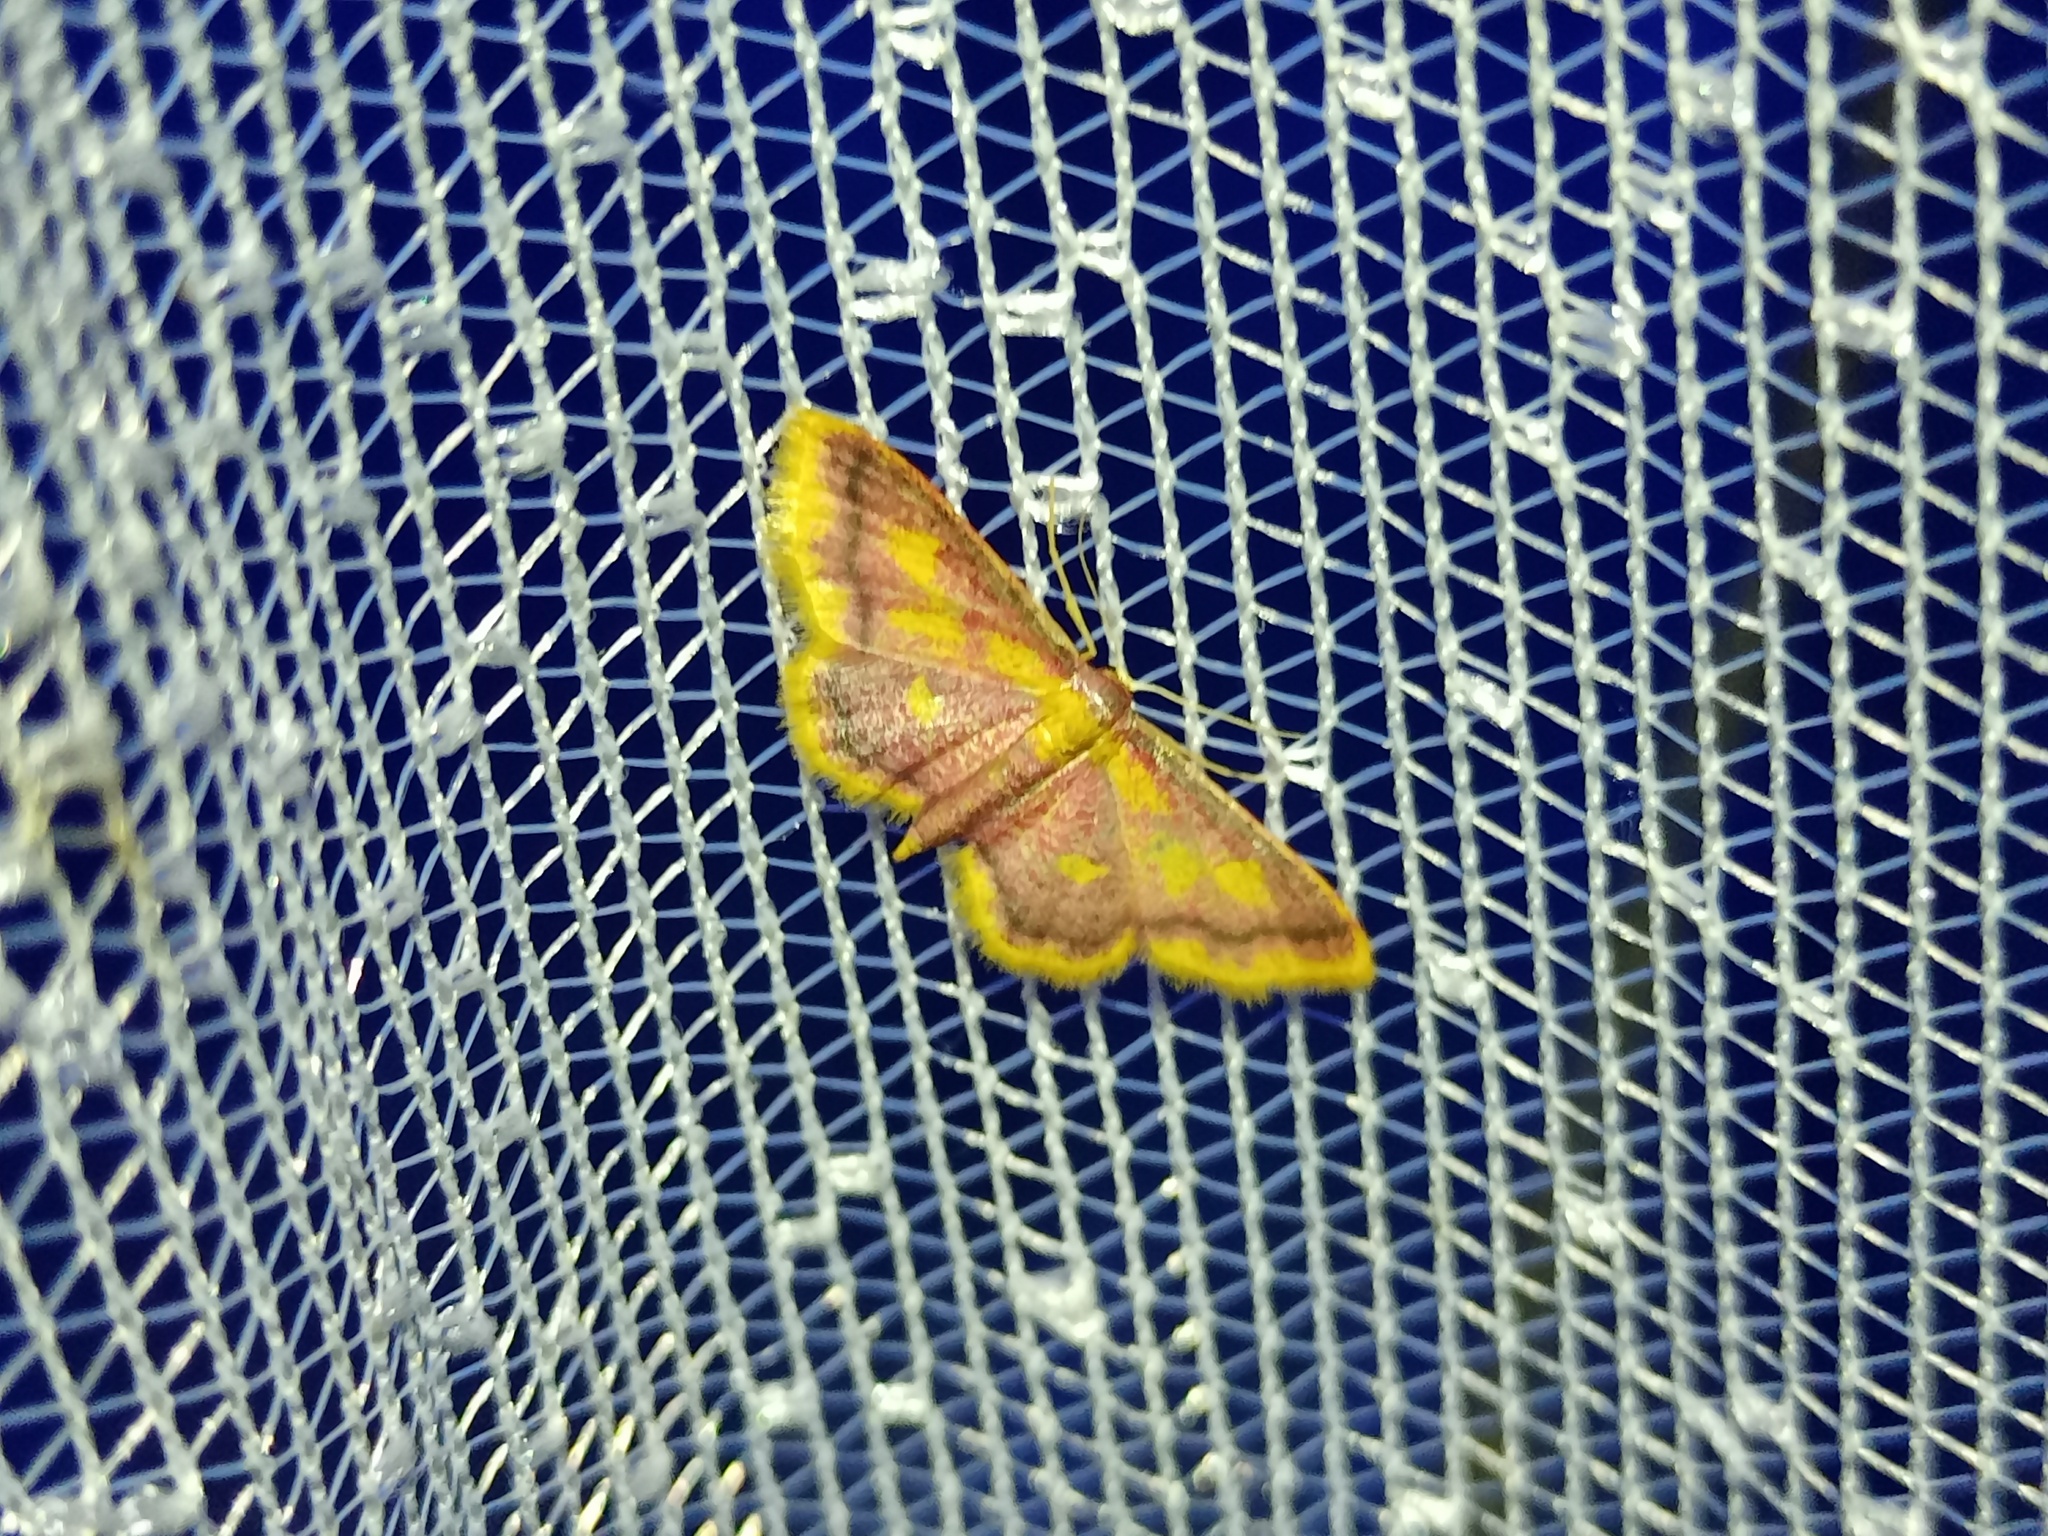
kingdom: Animalia
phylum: Arthropoda
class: Insecta
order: Lepidoptera
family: Geometridae
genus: Idaea
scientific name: Idaea muricata
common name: Purple-bordered gold
